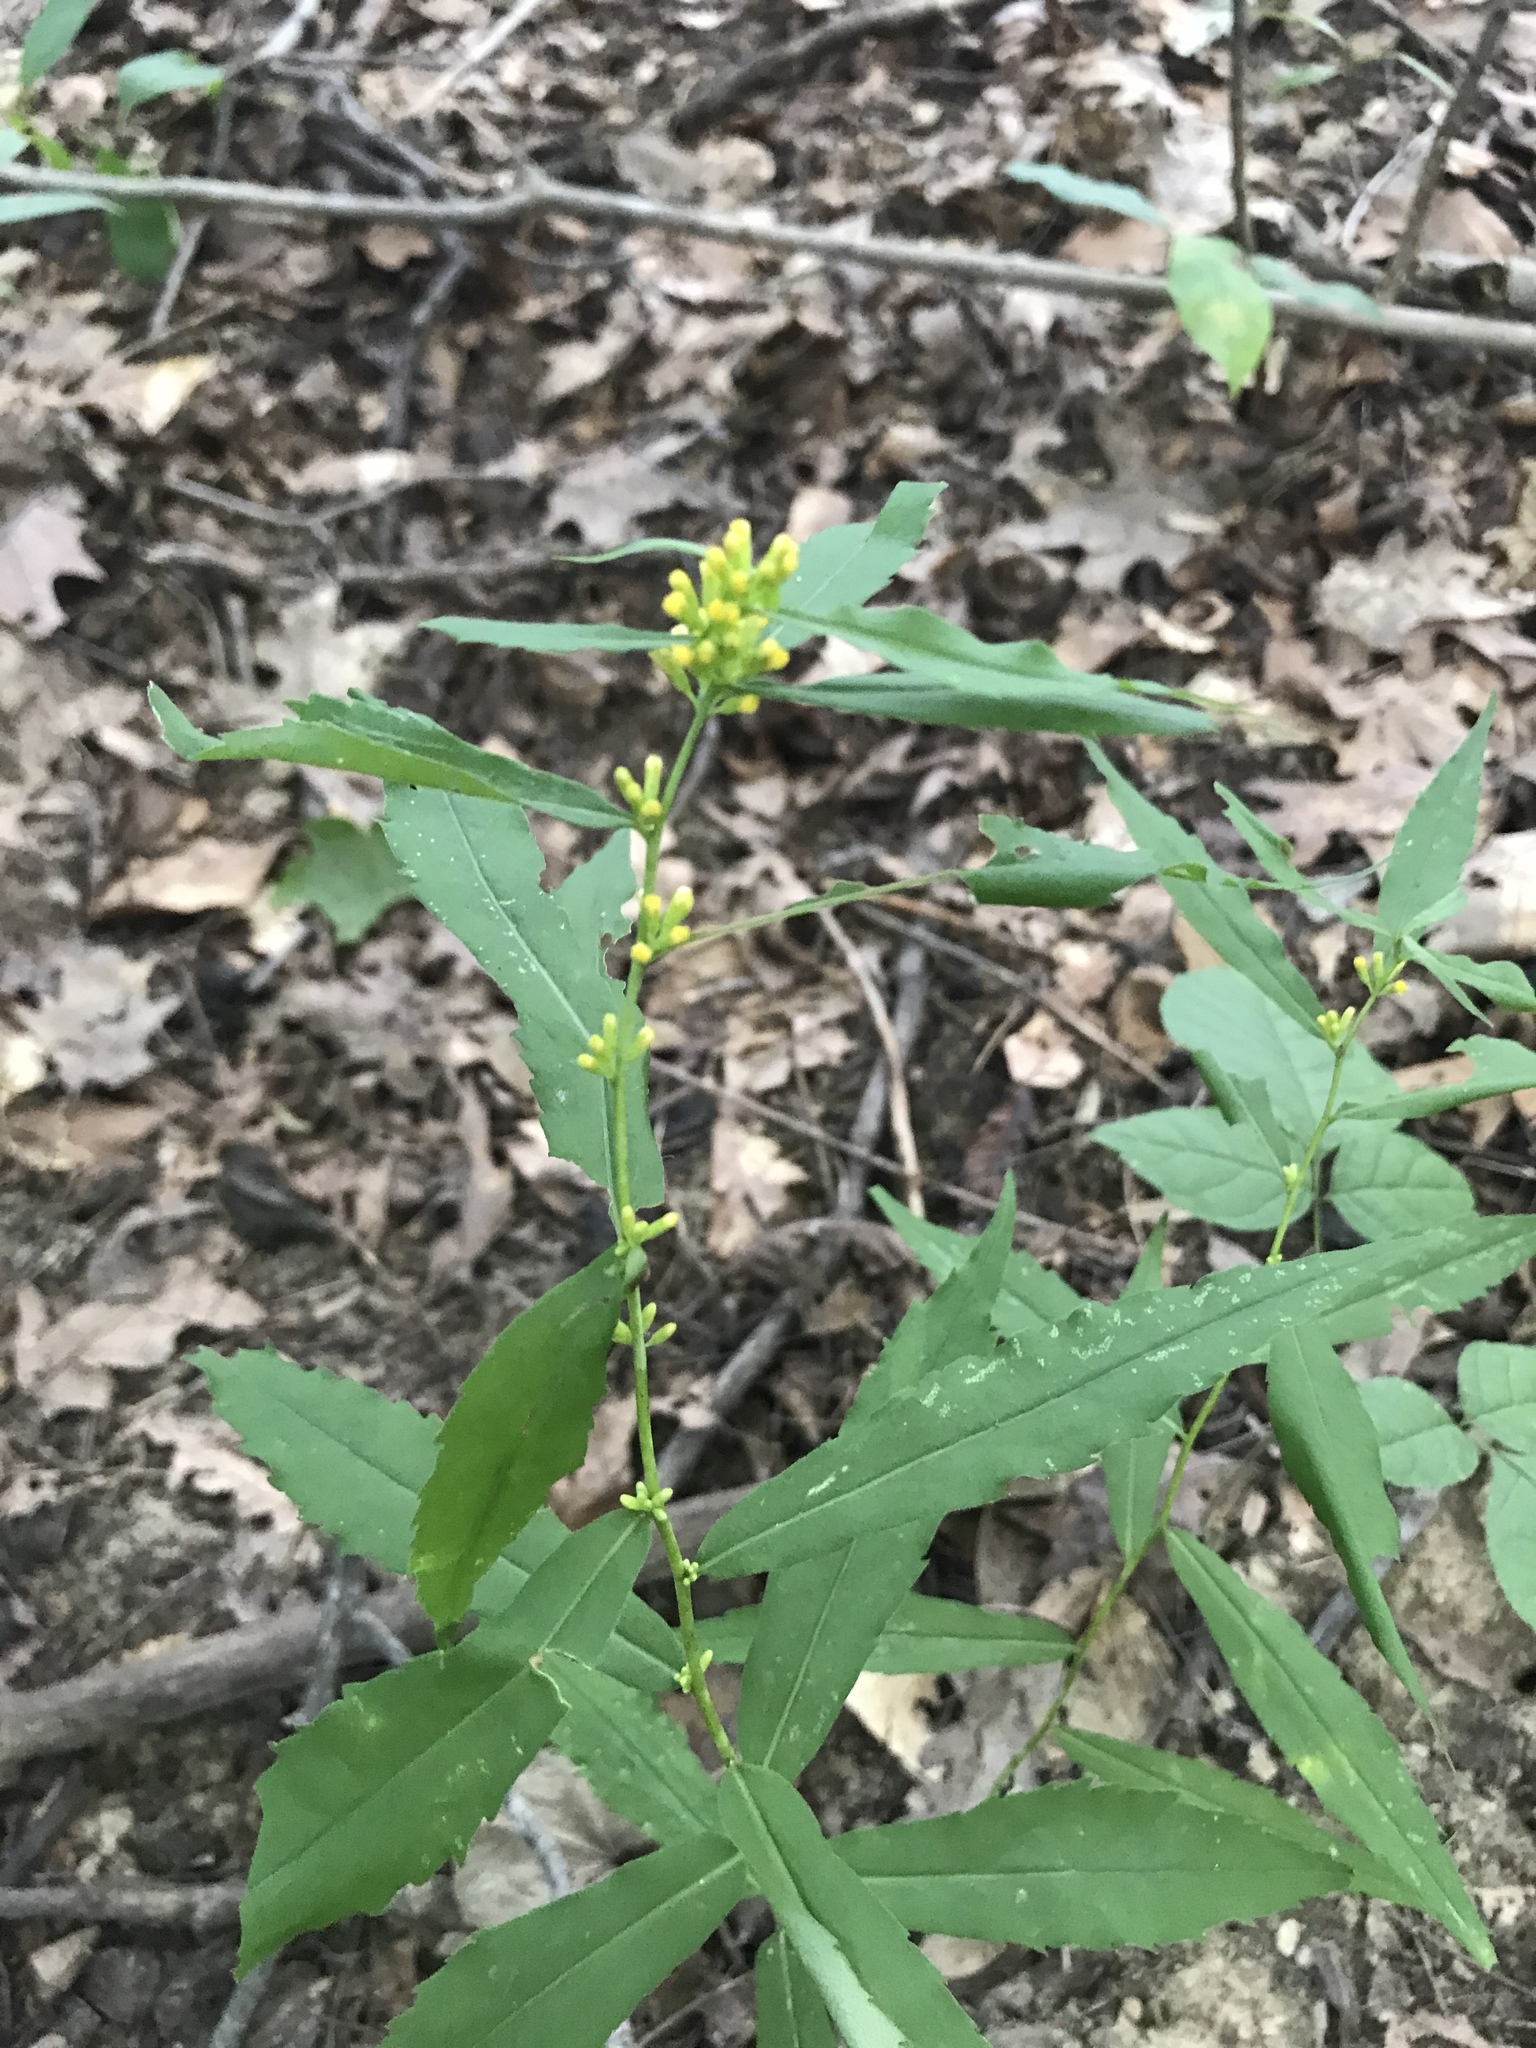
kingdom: Plantae
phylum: Tracheophyta
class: Magnoliopsida
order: Asterales
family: Asteraceae
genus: Solidago
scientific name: Solidago caesia
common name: Woodland goldenrod
